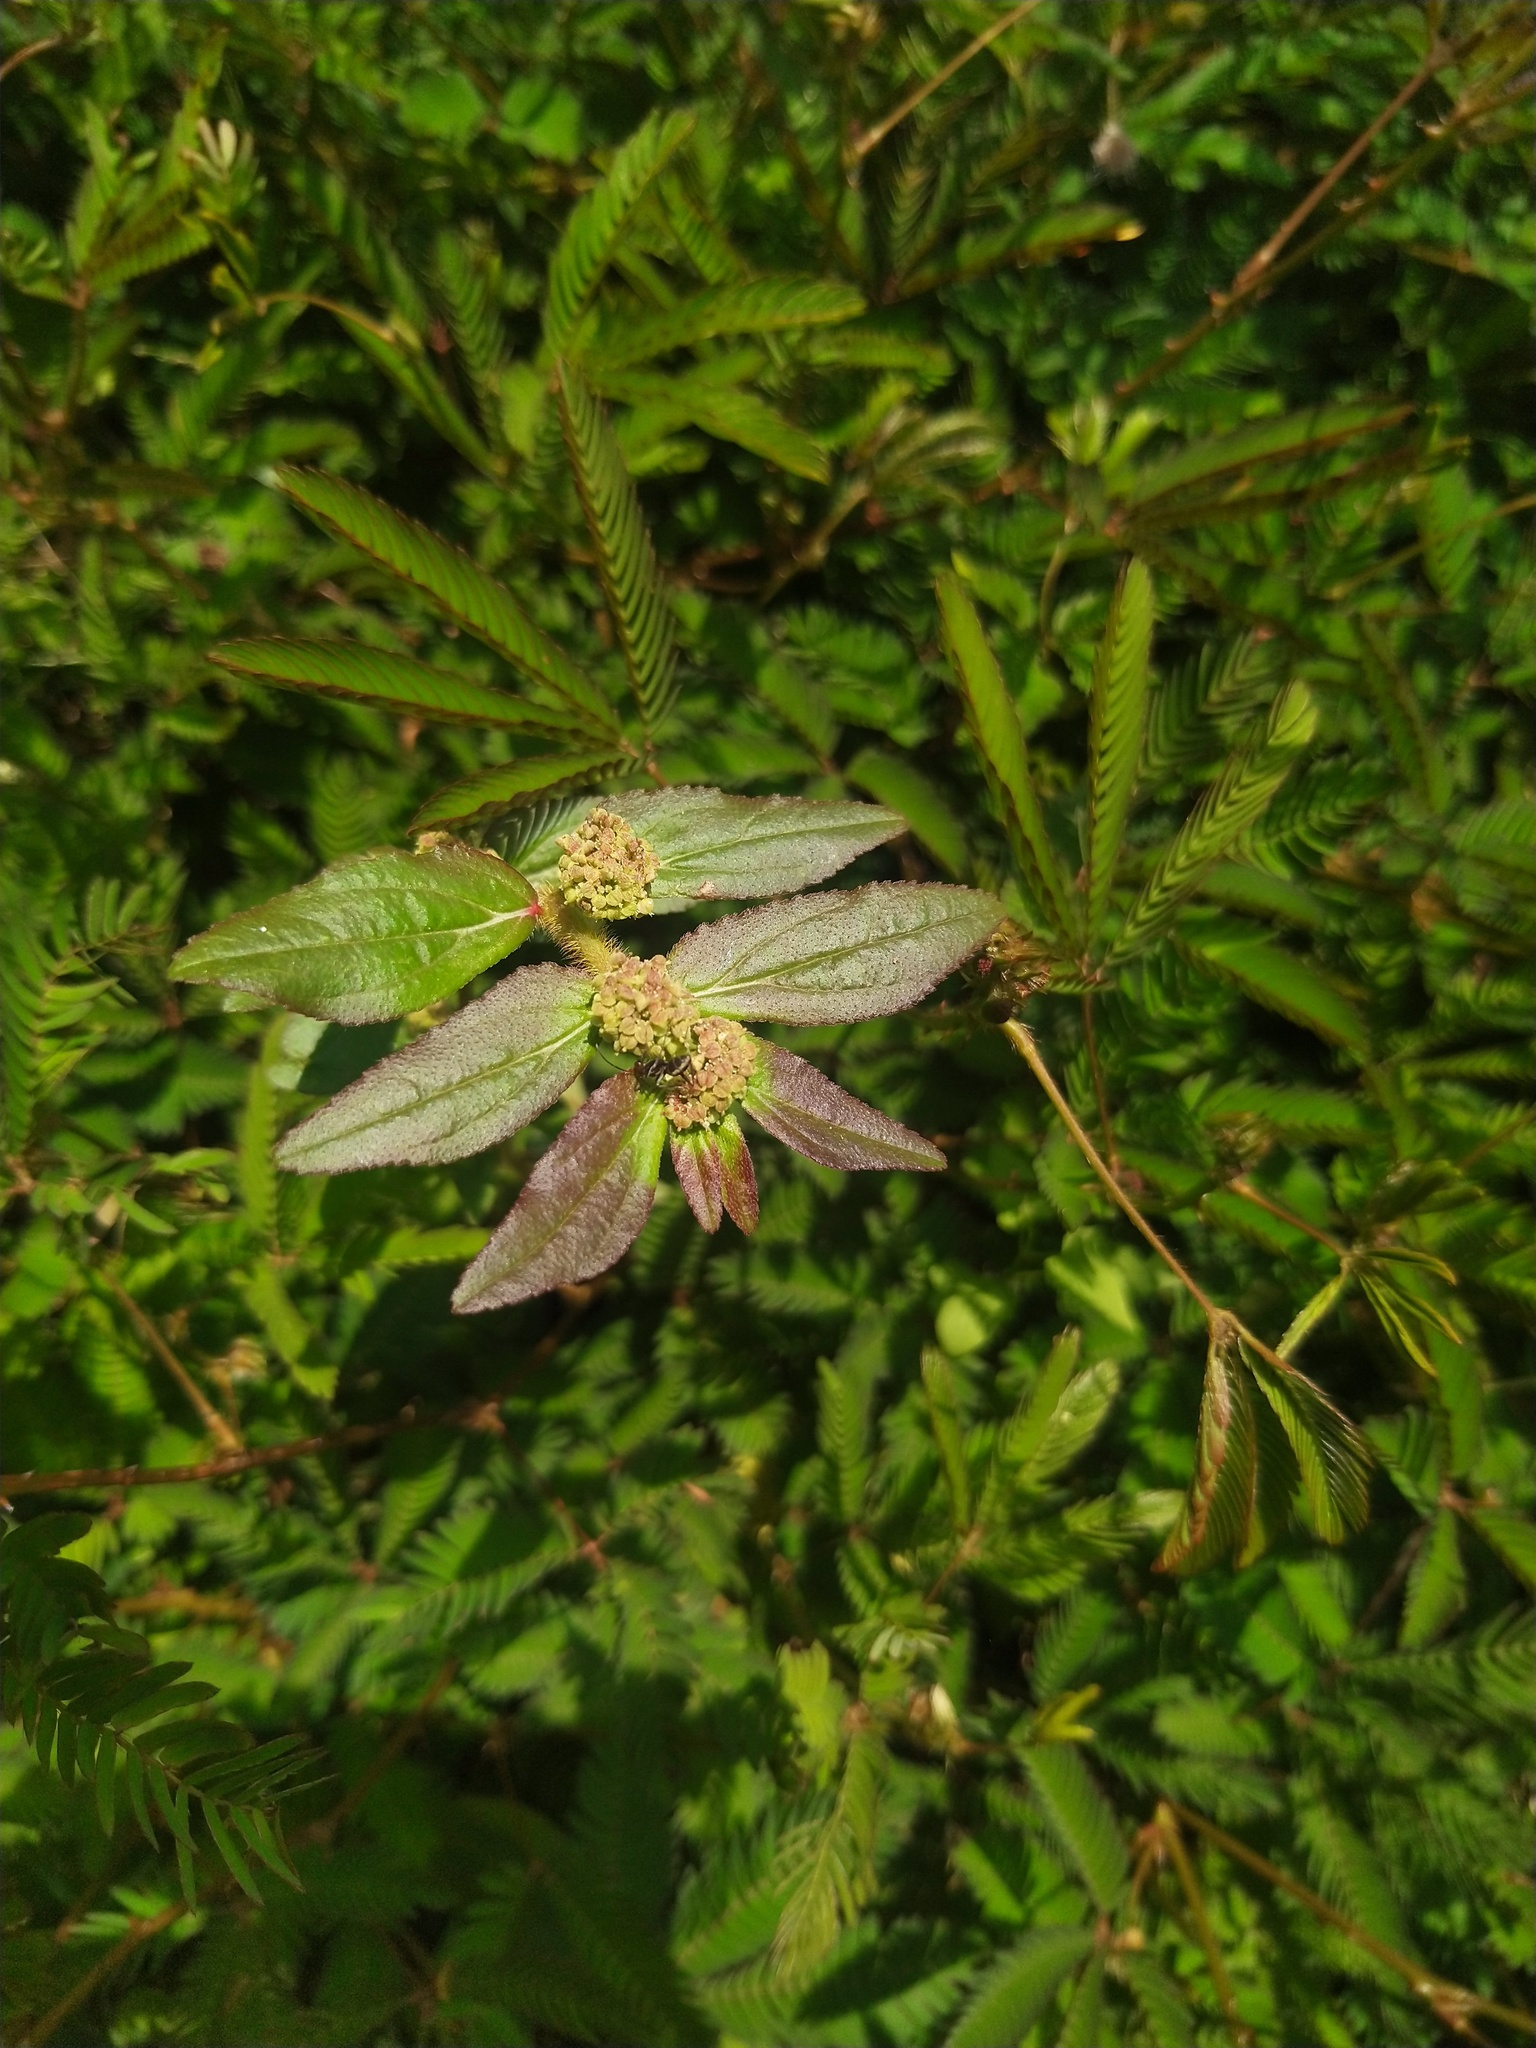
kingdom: Plantae
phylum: Tracheophyta
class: Magnoliopsida
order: Malpighiales
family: Euphorbiaceae
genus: Euphorbia
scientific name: Euphorbia hirta
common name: Pillpod sandmat
